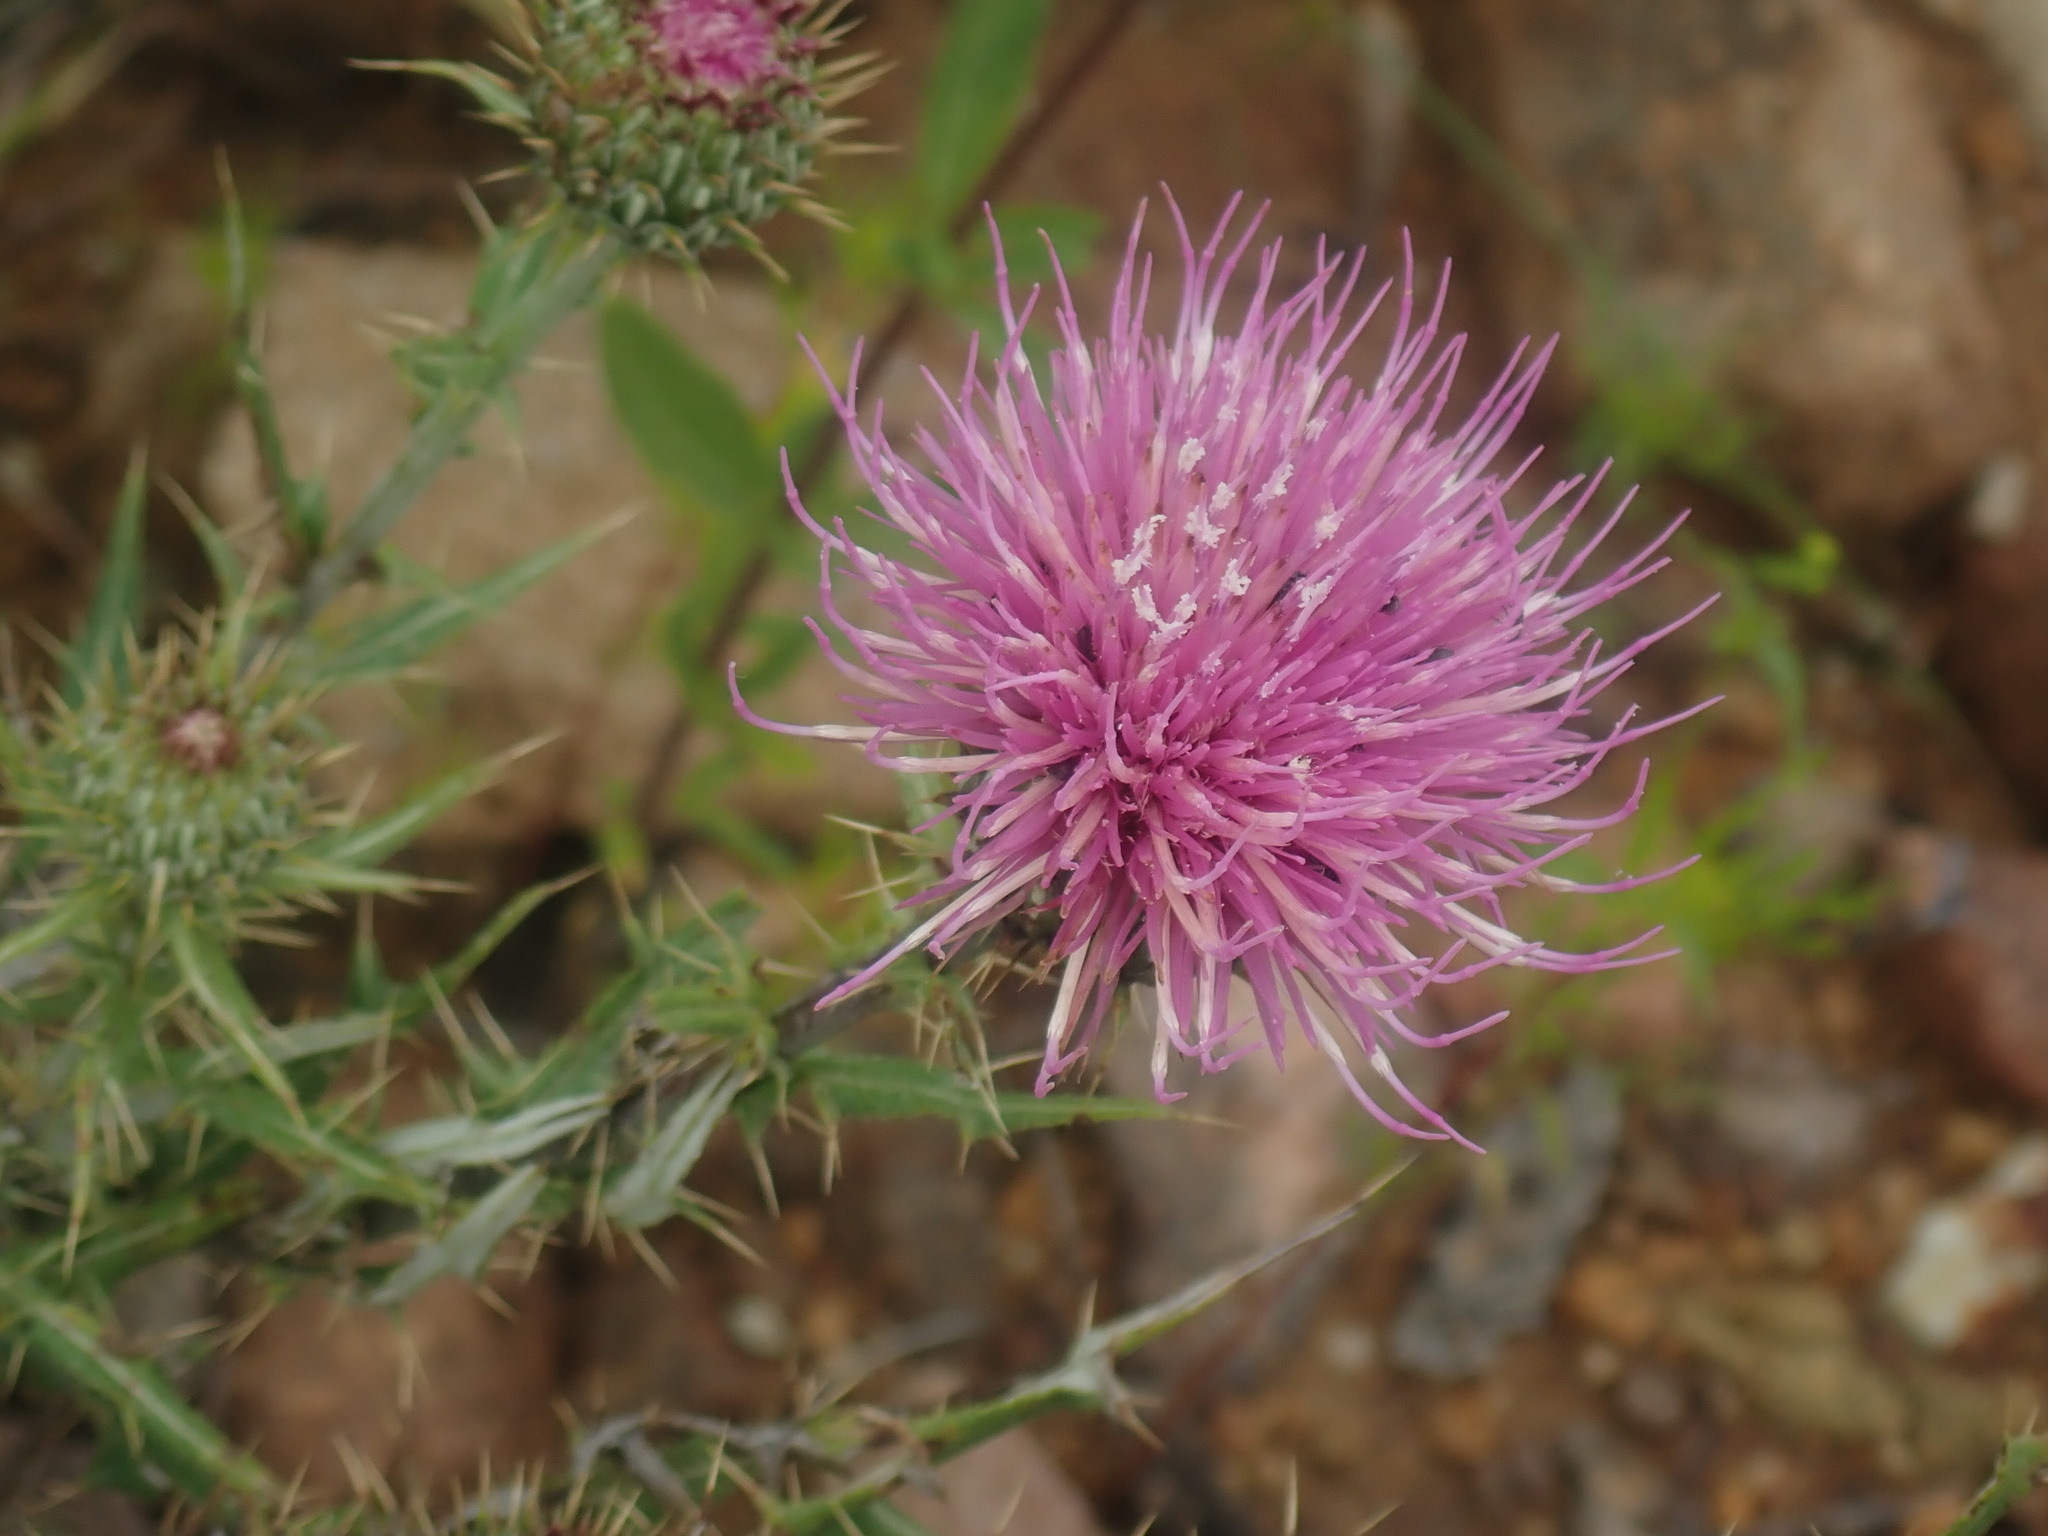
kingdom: Plantae
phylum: Tracheophyta
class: Magnoliopsida
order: Asterales
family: Asteraceae
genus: Cirsium
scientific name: Cirsium wheeleri
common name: Wheeler's thistle
